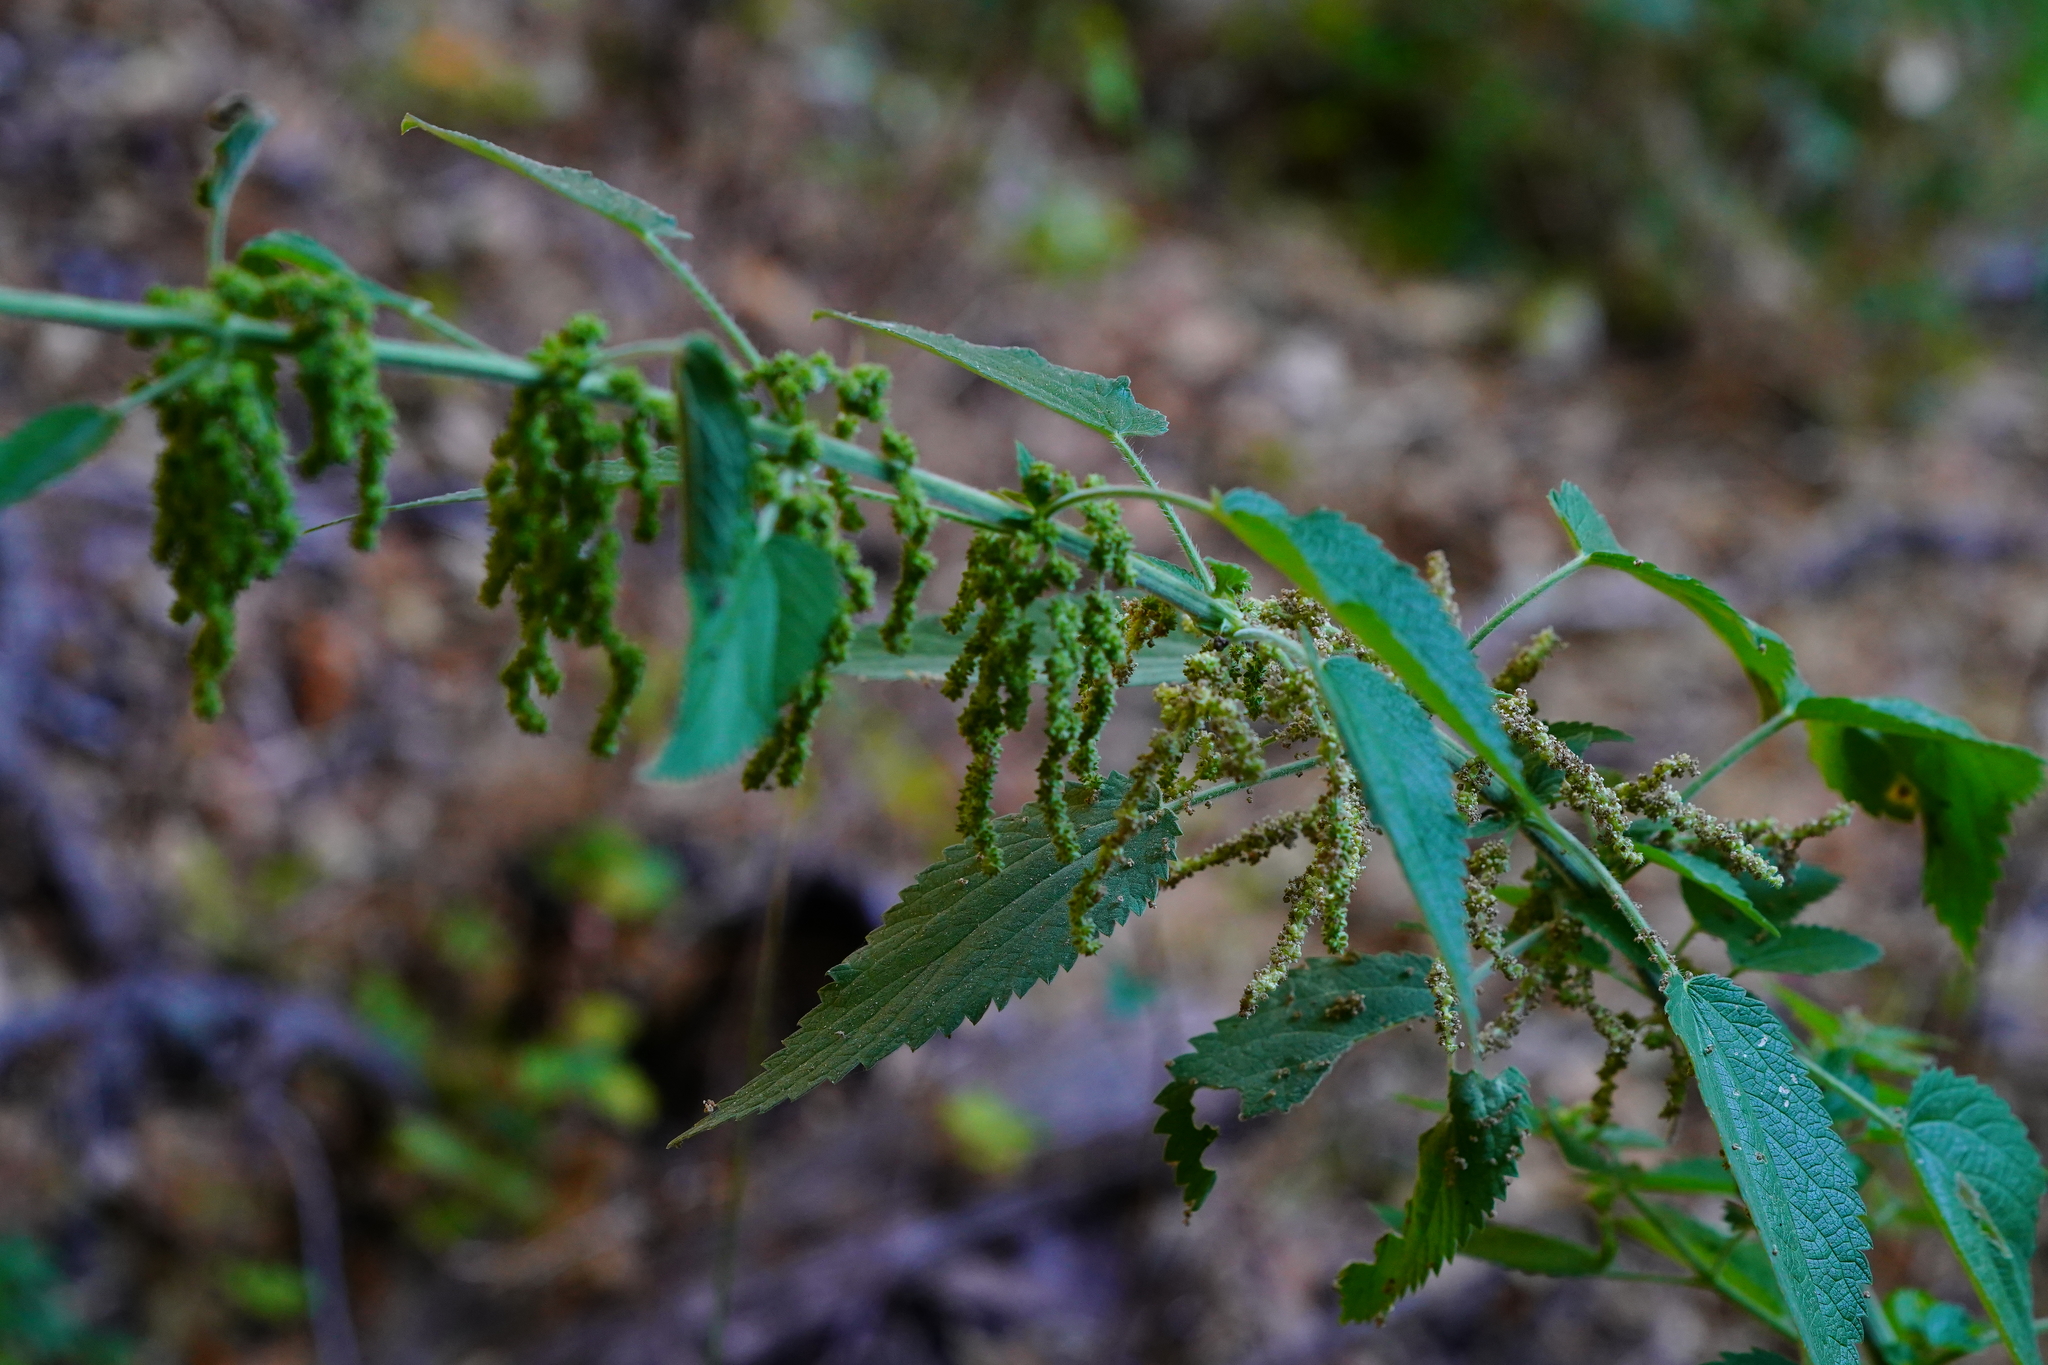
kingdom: Plantae
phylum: Tracheophyta
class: Magnoliopsida
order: Rosales
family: Urticaceae
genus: Urtica
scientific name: Urtica dioica
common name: Common nettle
